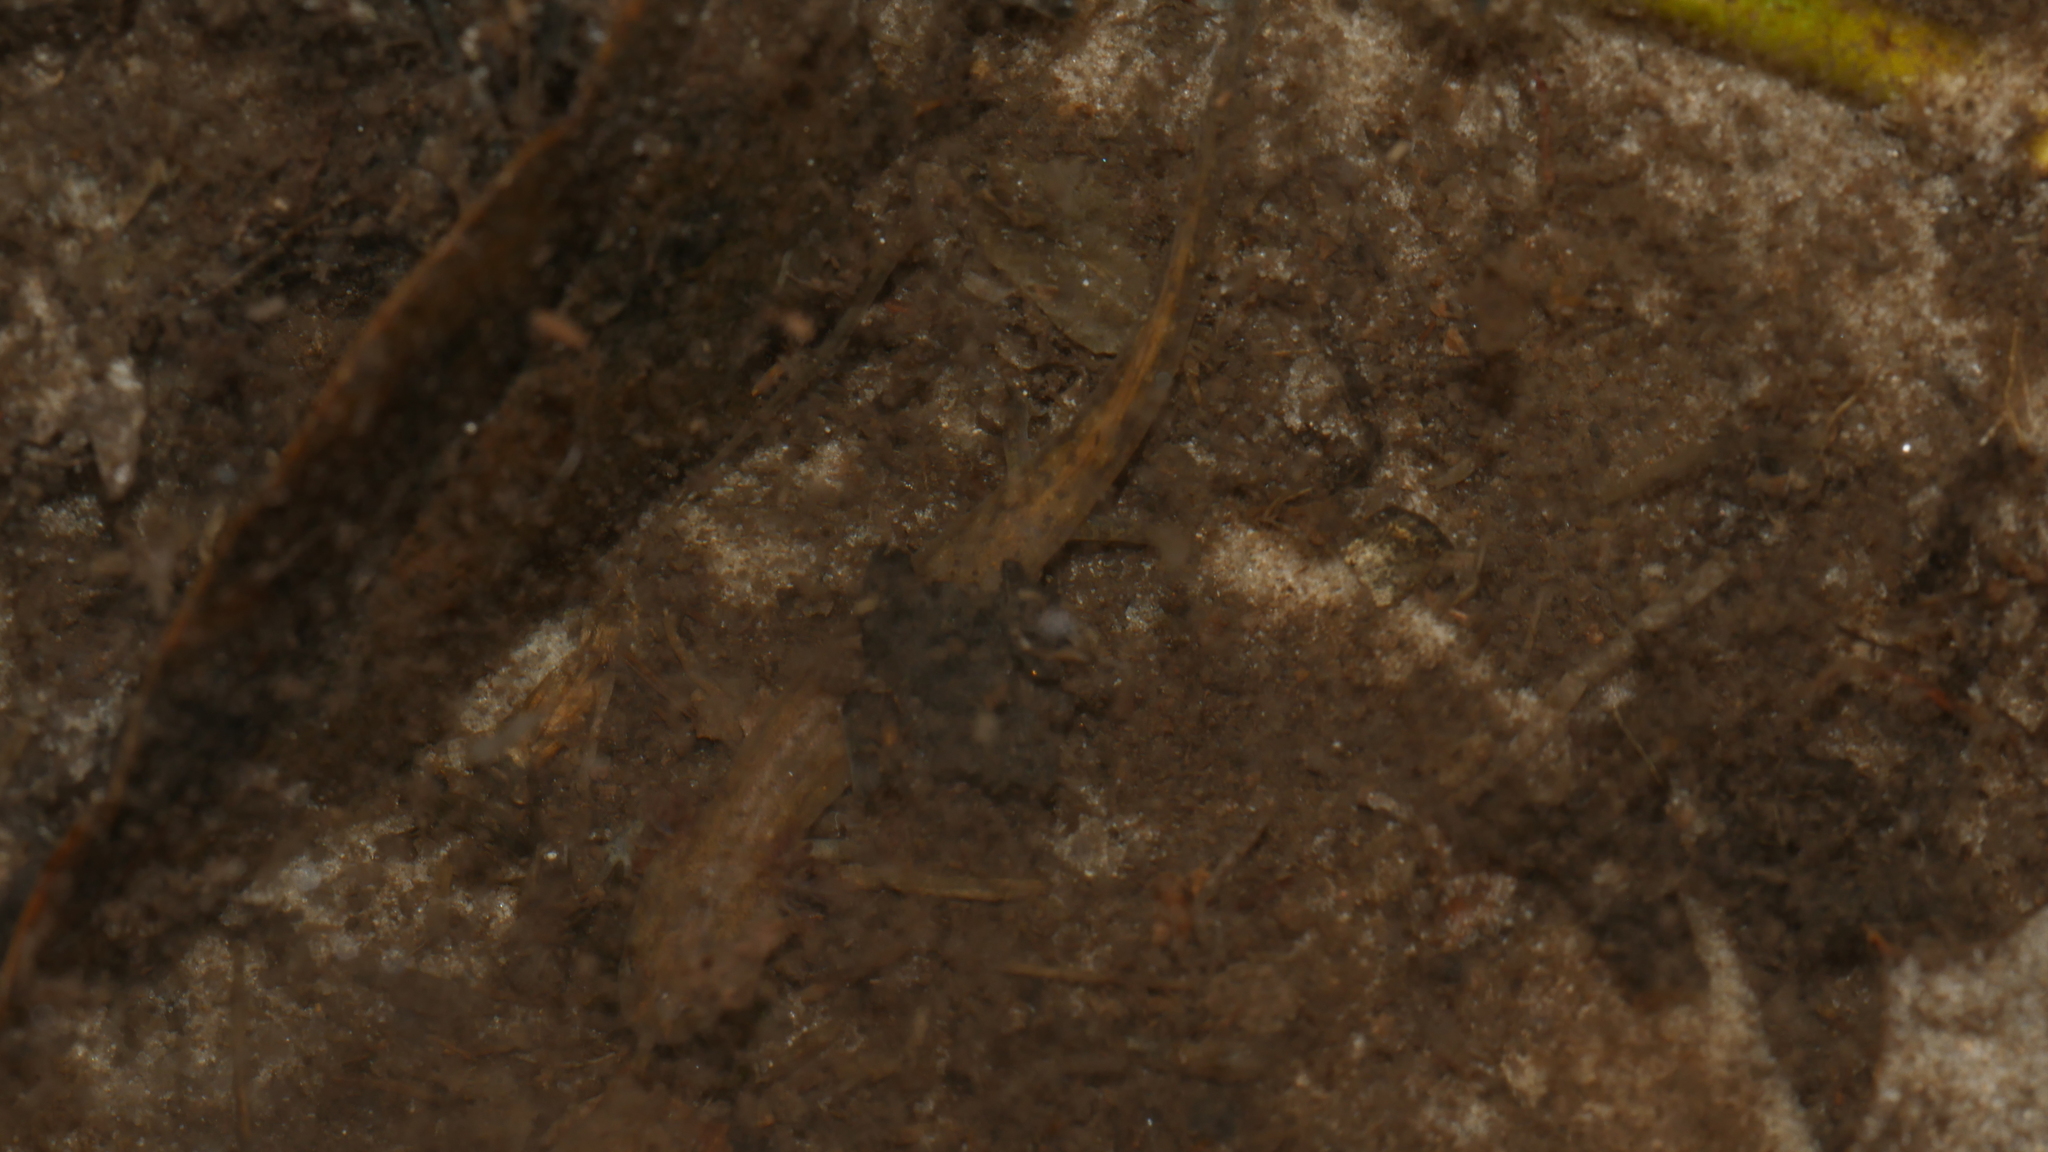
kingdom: Animalia
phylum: Chordata
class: Amphibia
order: Caudata
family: Plethodontidae
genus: Eurycea
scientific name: Eurycea cirrigera
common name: Southern two-lined salamander
